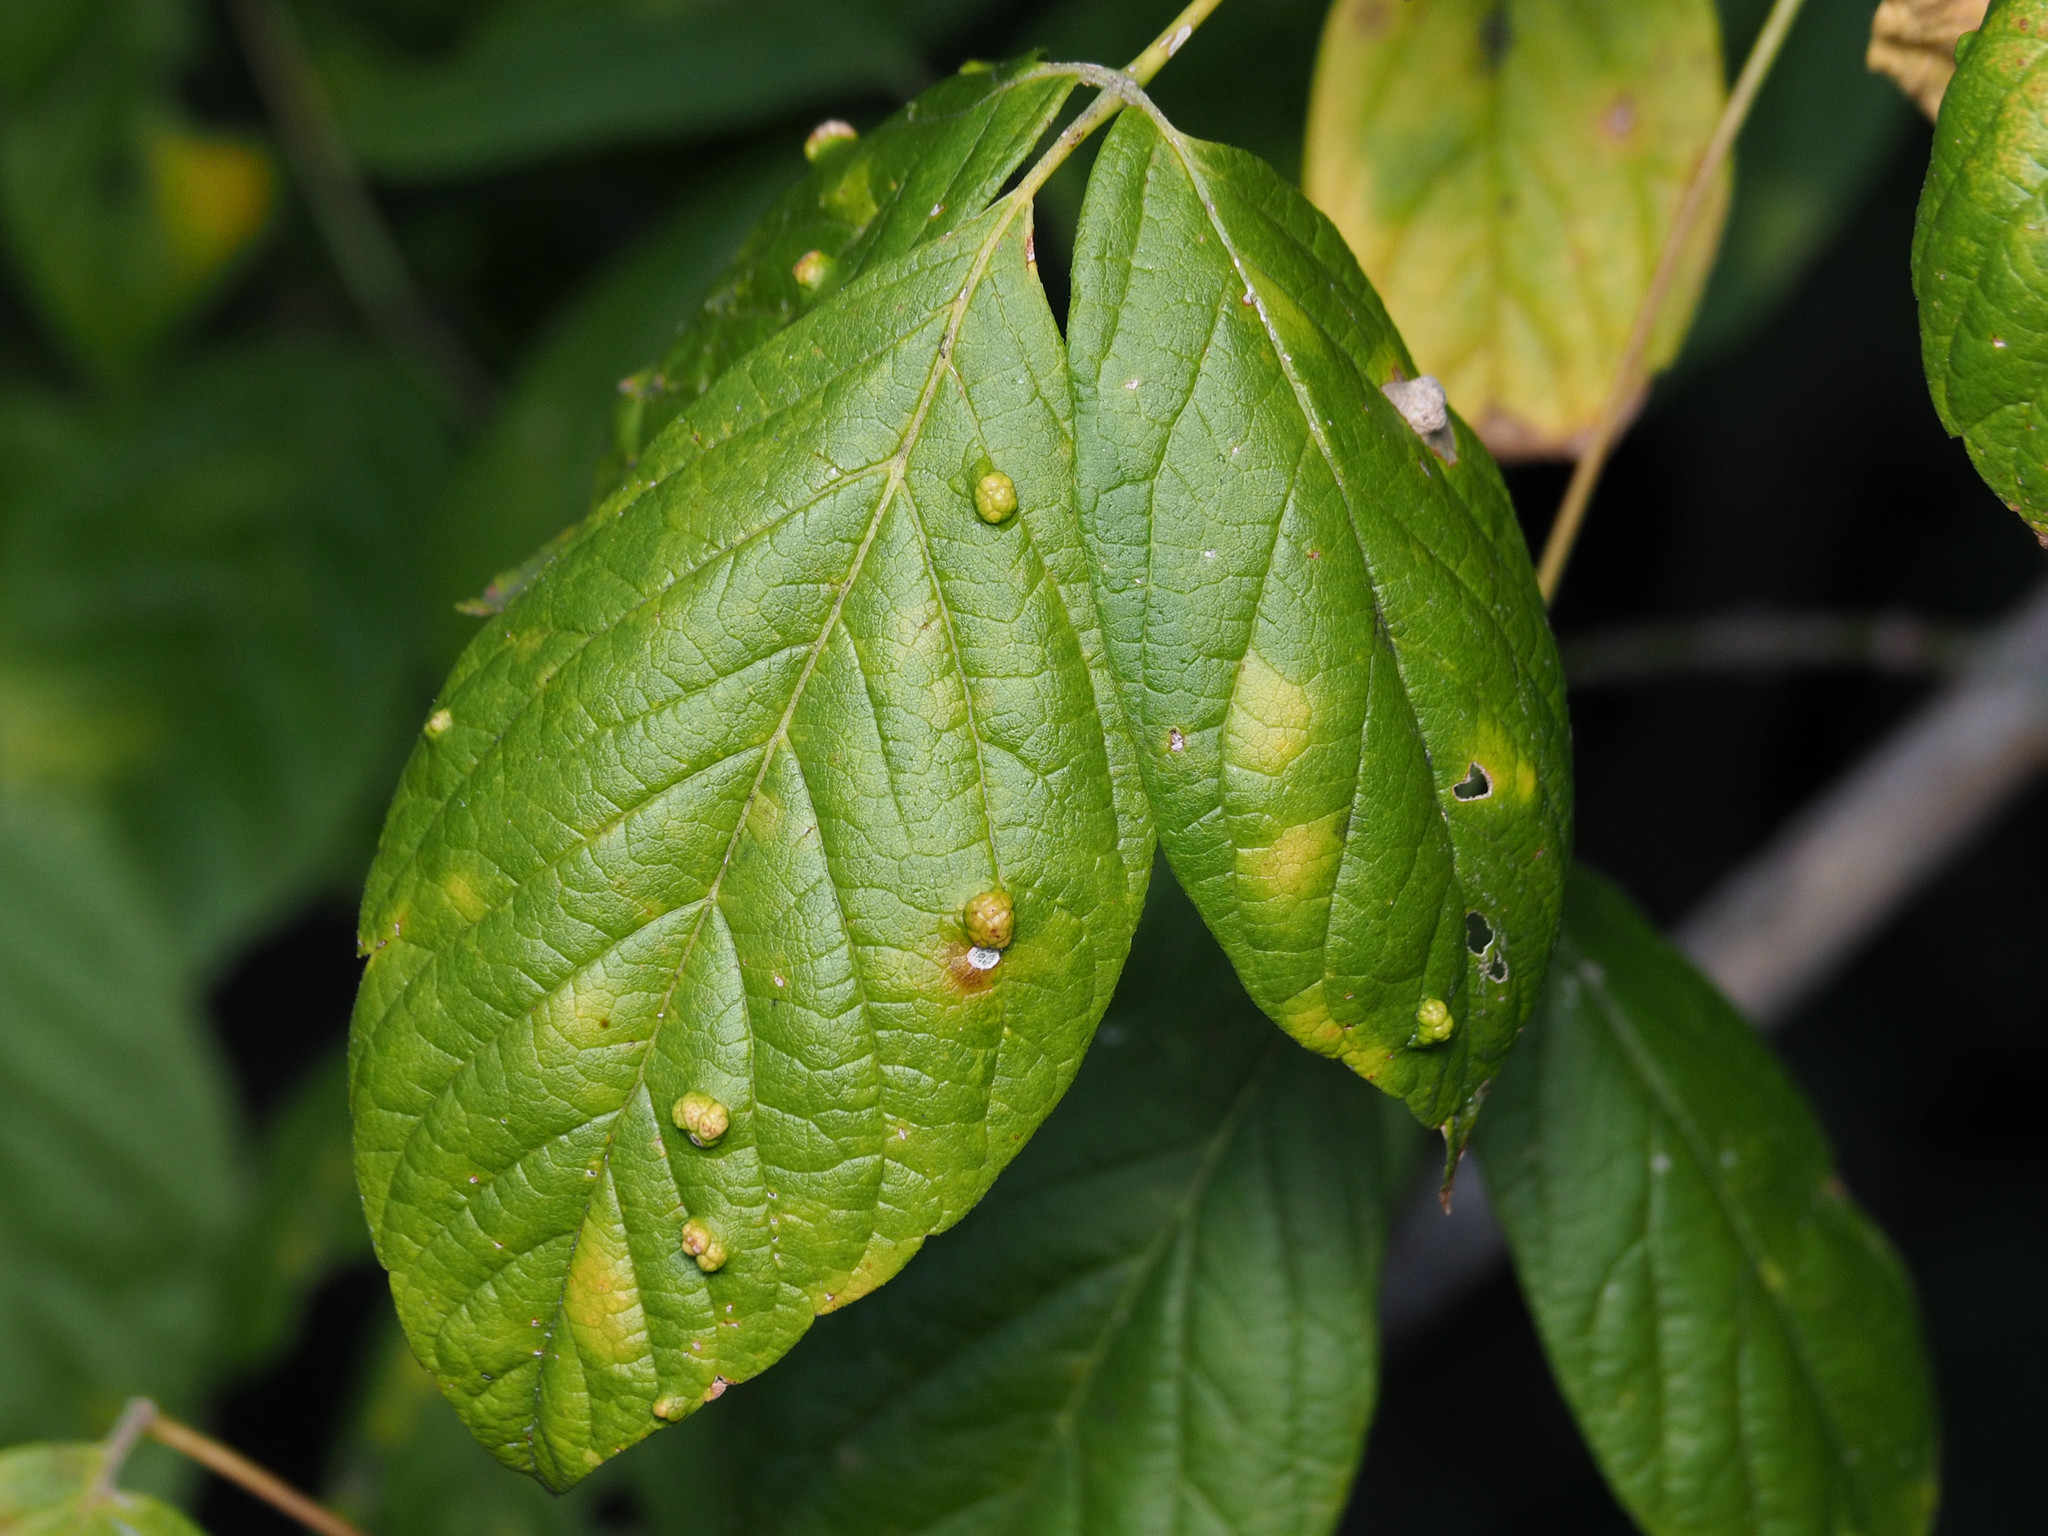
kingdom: Animalia
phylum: Arthropoda
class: Arachnida
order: Trombidiformes
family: Eriophyidae
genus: Aceria
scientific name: Aceria
